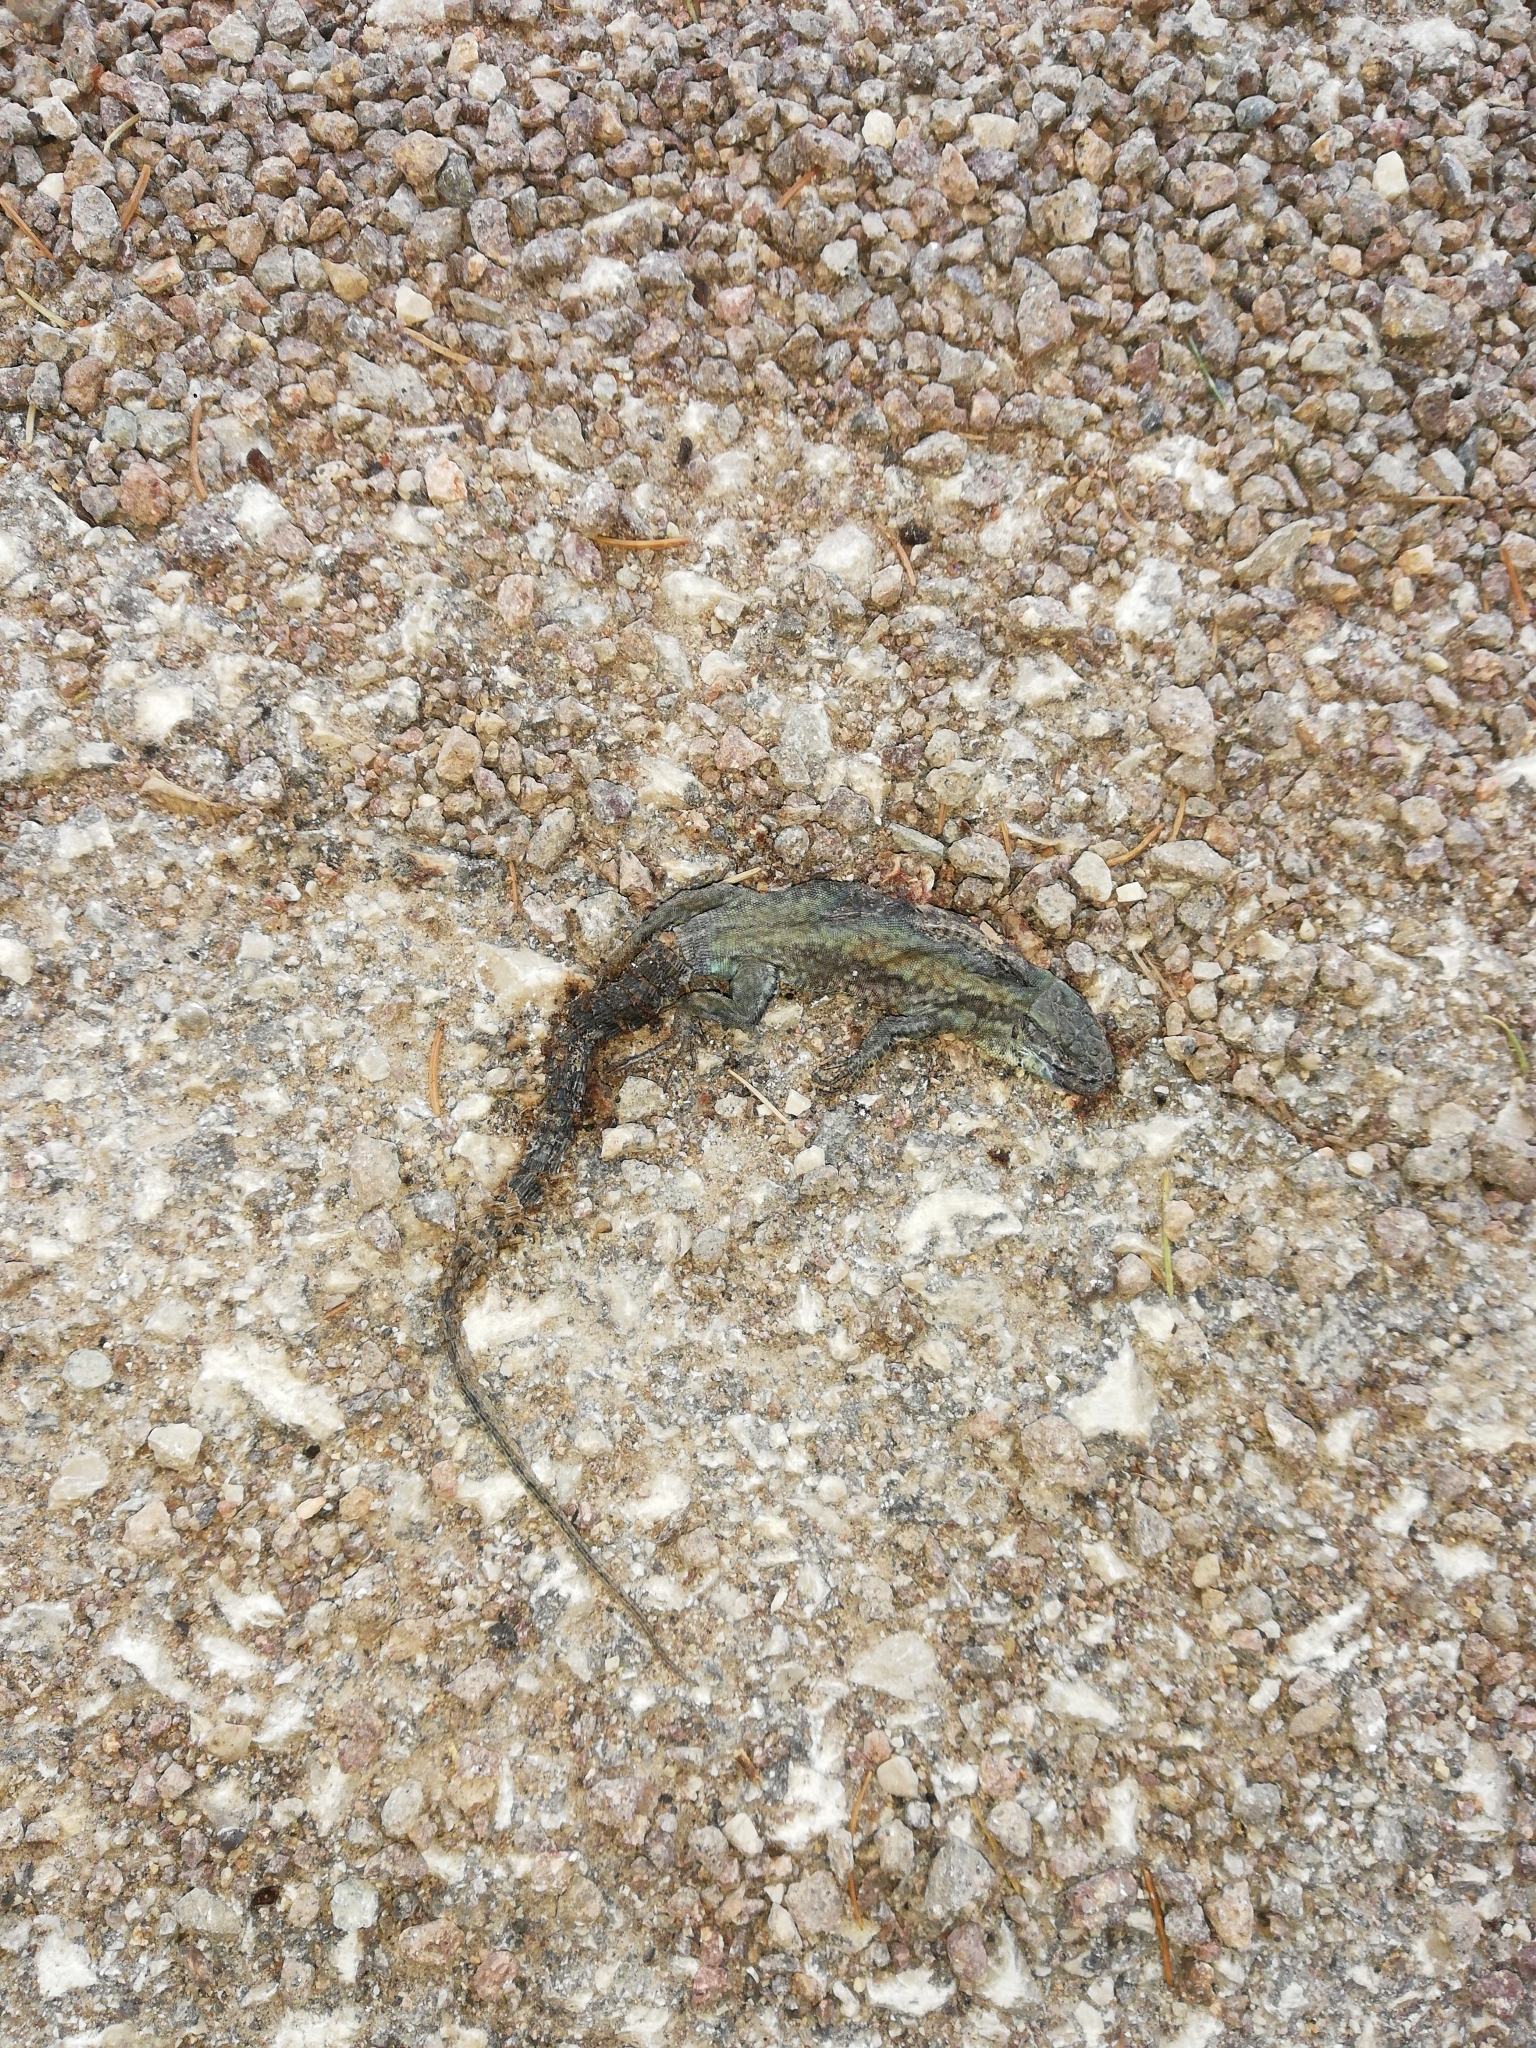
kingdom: Animalia
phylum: Chordata
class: Squamata
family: Lacertidae
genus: Podarcis
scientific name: Podarcis muralis
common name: Common wall lizard
